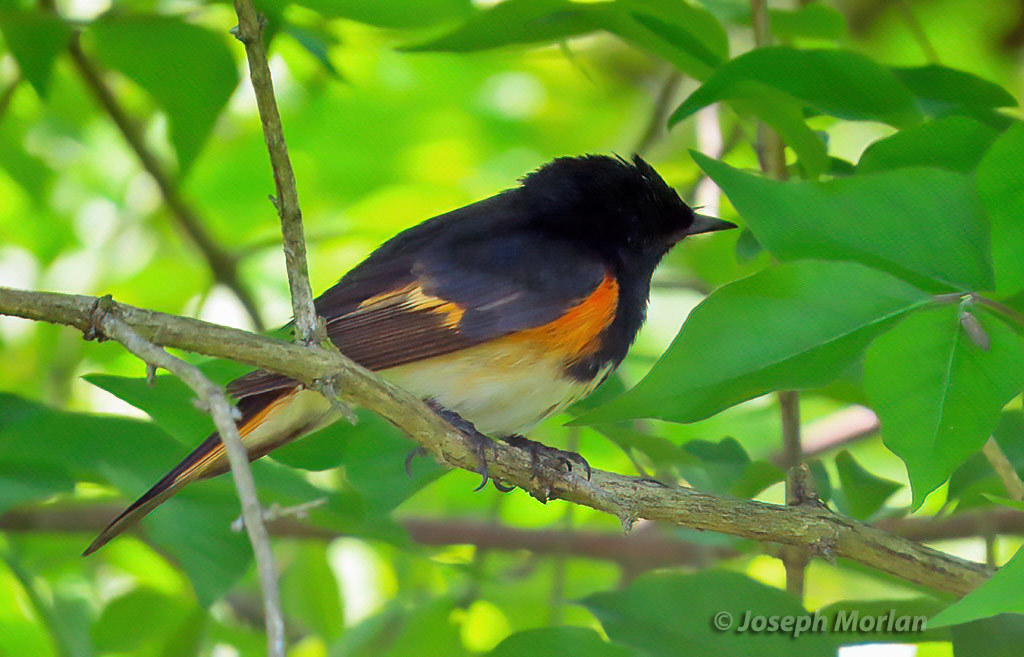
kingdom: Animalia
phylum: Chordata
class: Aves
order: Passeriformes
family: Parulidae
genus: Setophaga
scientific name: Setophaga ruticilla
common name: American redstart
